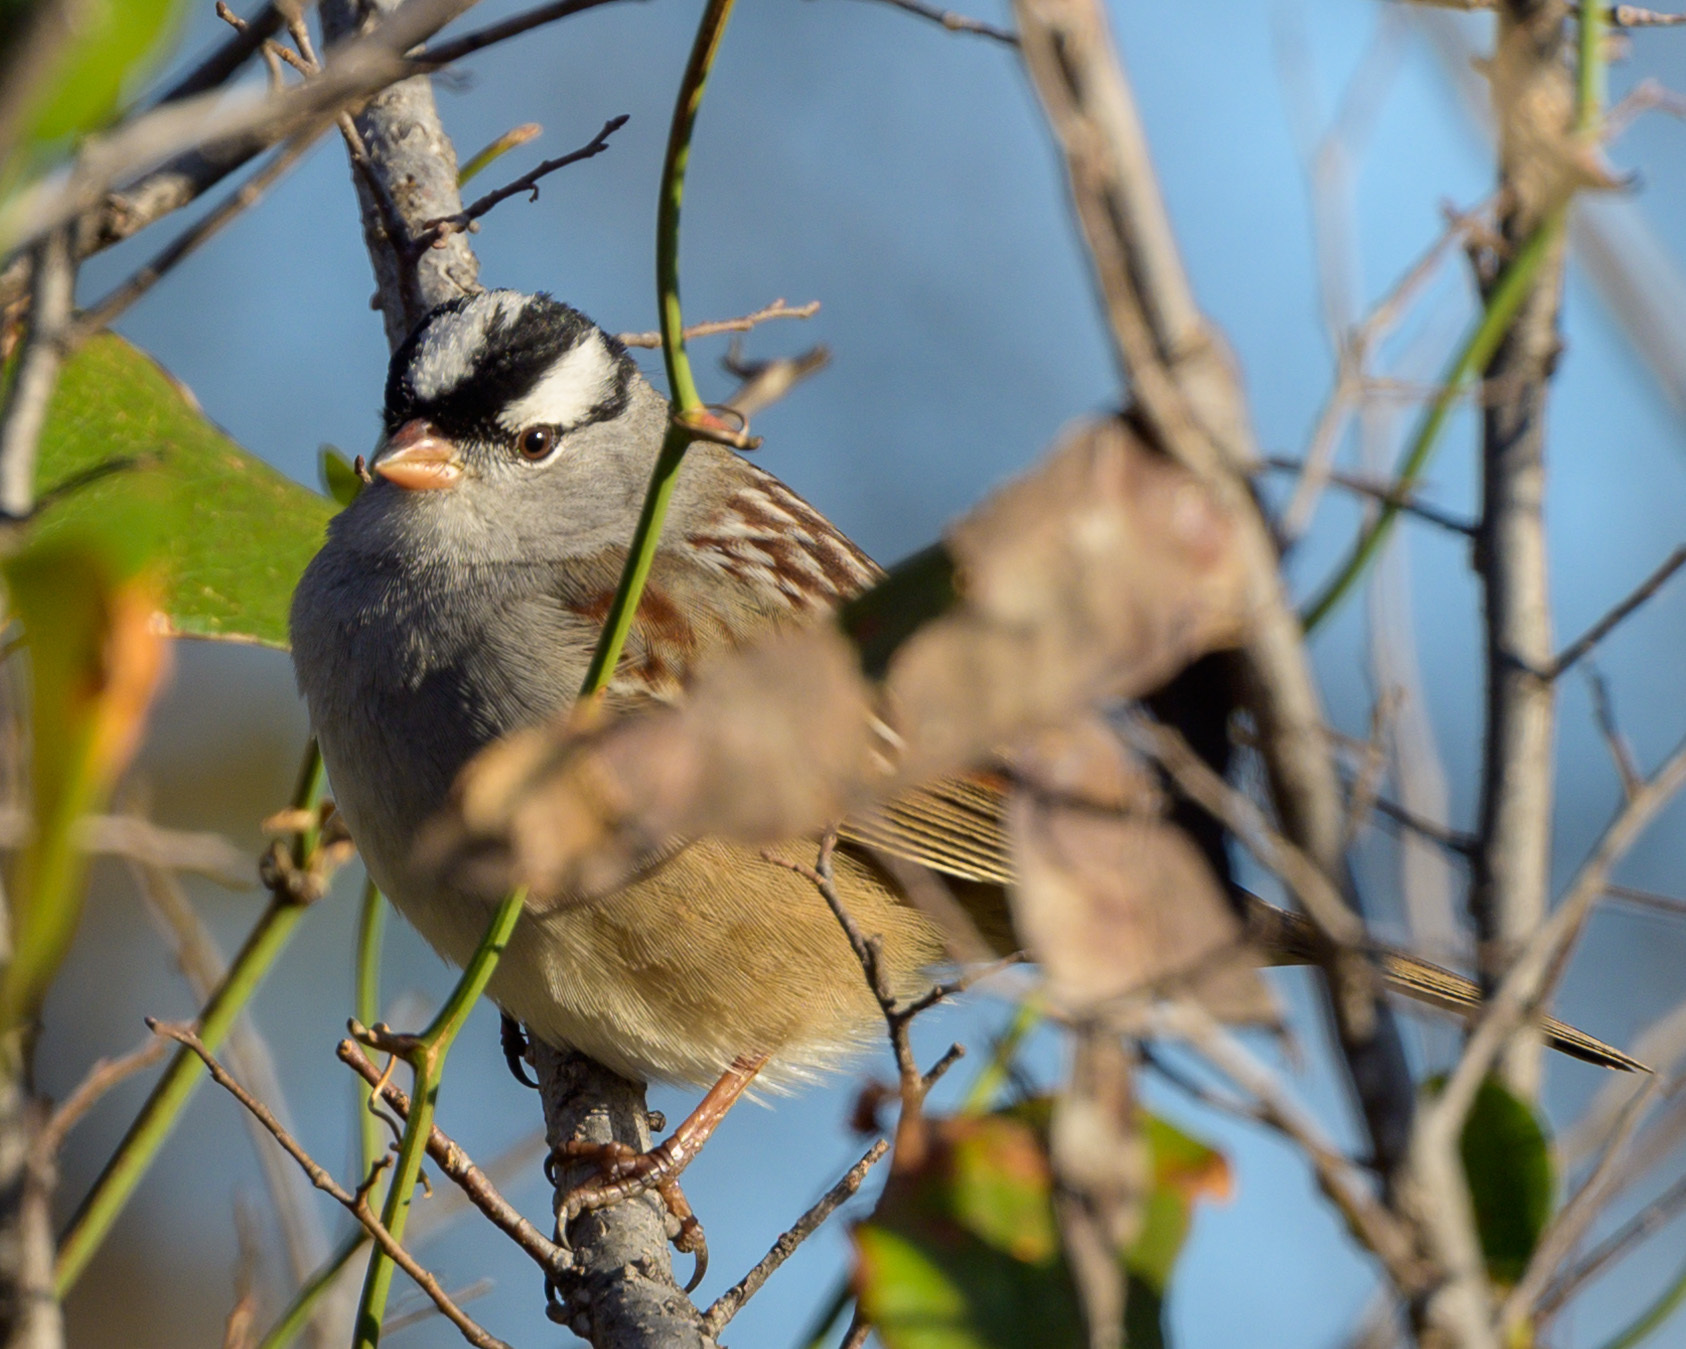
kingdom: Animalia
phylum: Chordata
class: Aves
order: Passeriformes
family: Passerellidae
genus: Zonotrichia
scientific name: Zonotrichia leucophrys
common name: White-crowned sparrow
